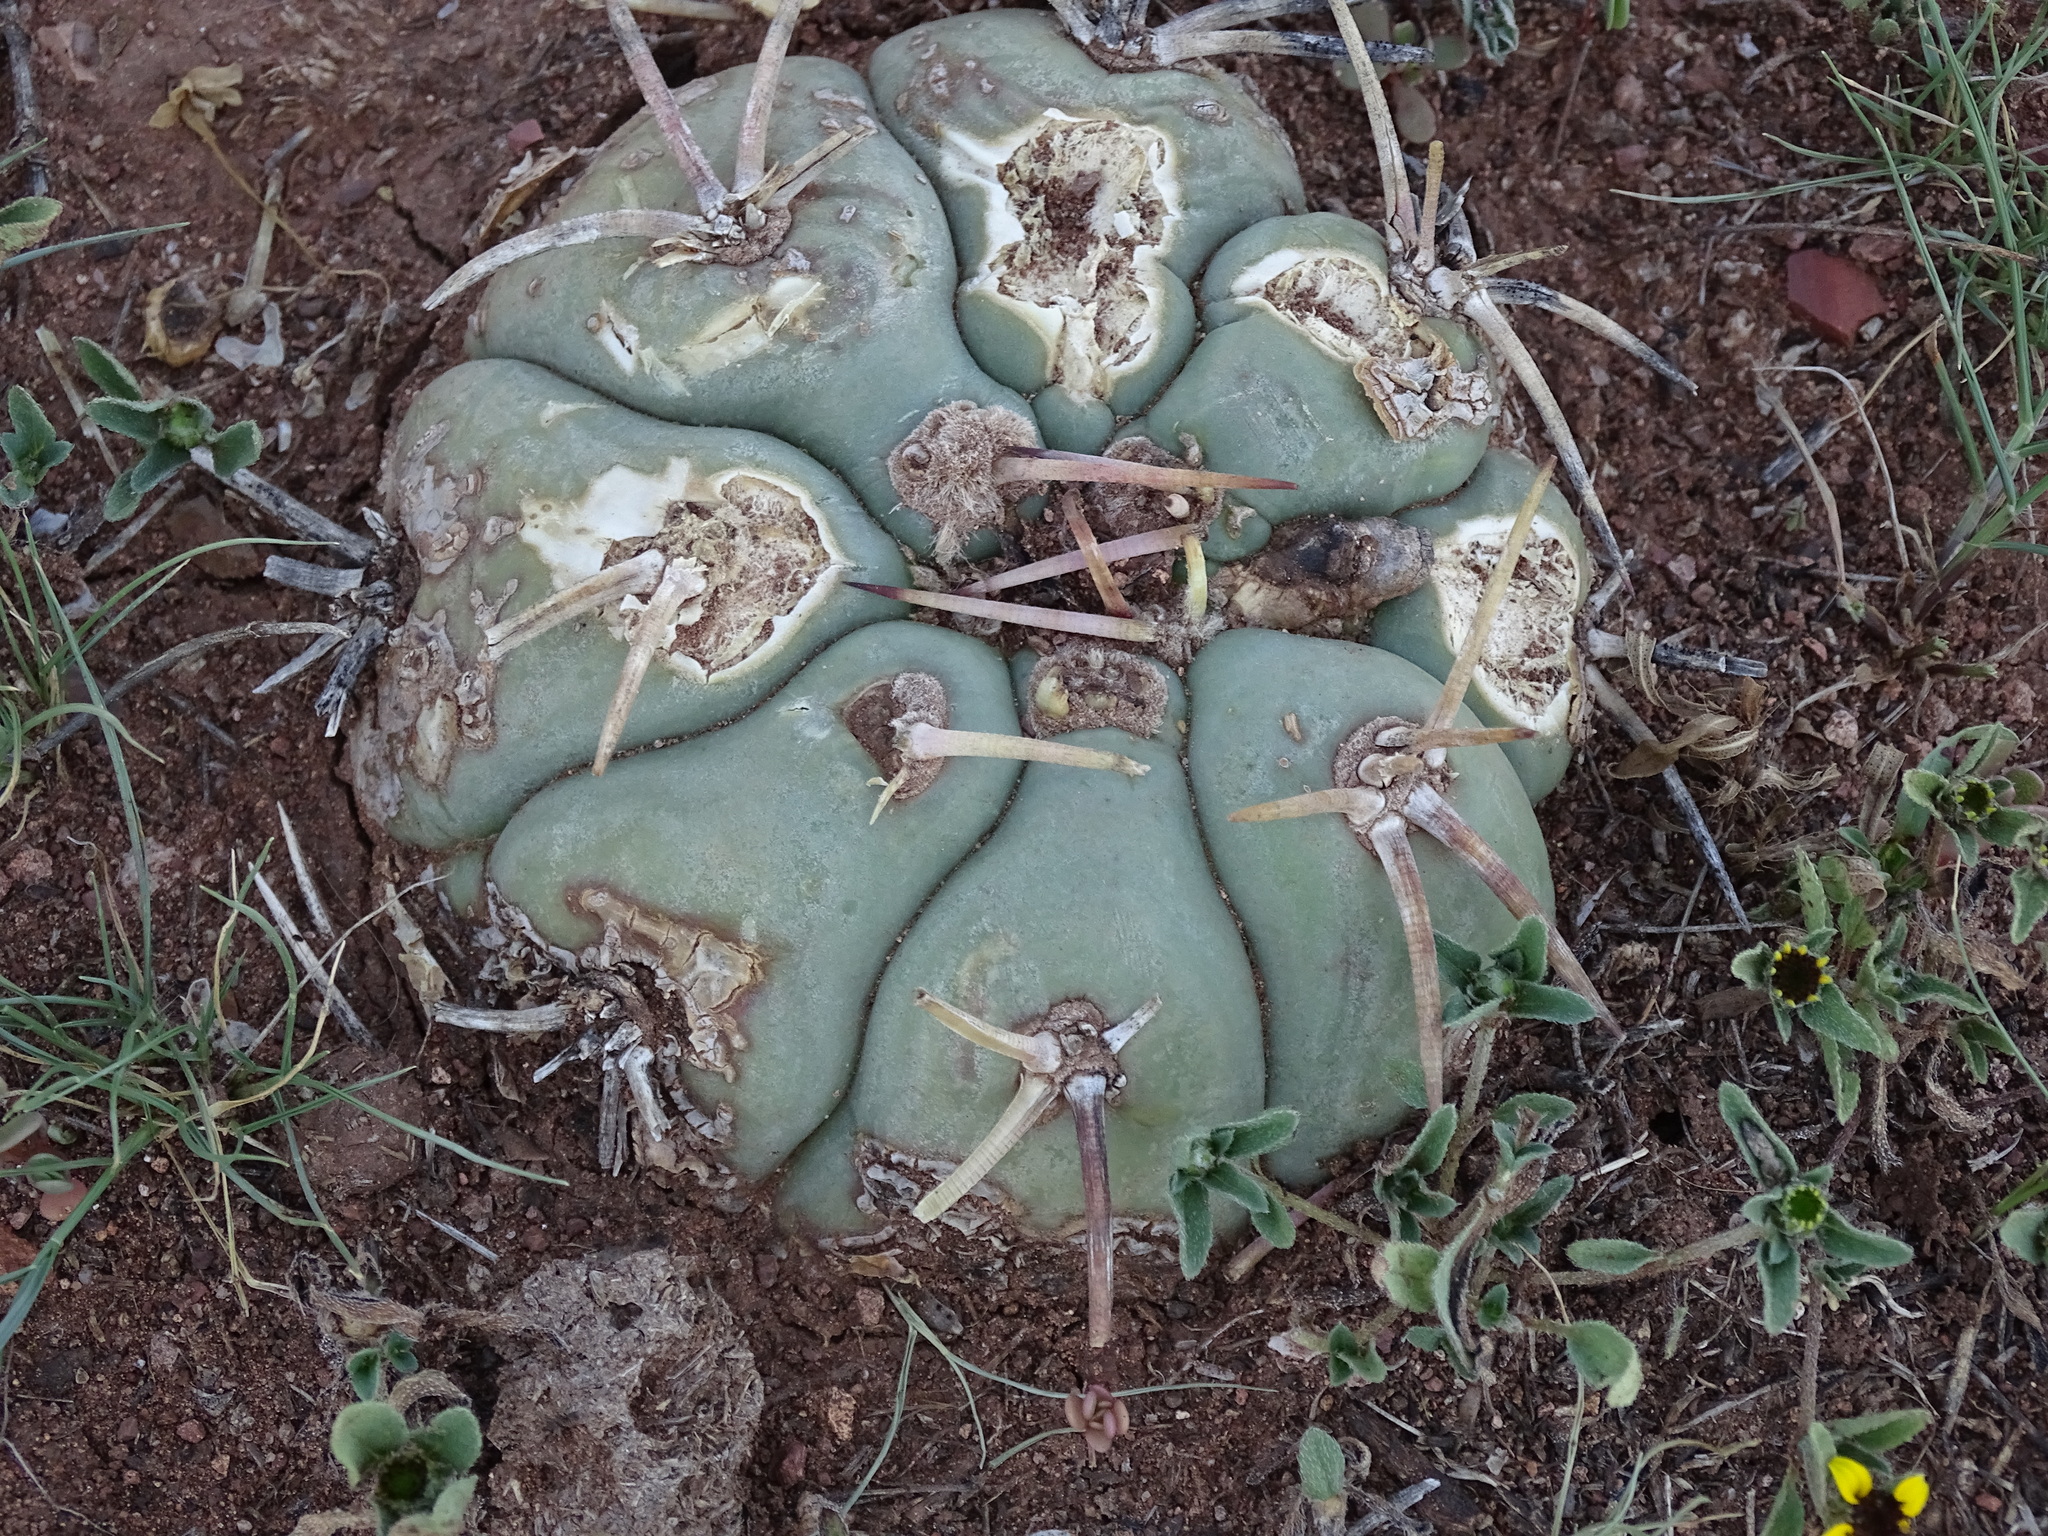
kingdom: Plantae
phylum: Tracheophyta
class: Magnoliopsida
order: Caryophyllales
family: Cactaceae
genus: Echinocactus
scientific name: Echinocactus horizonthalonius
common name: Devilshead
